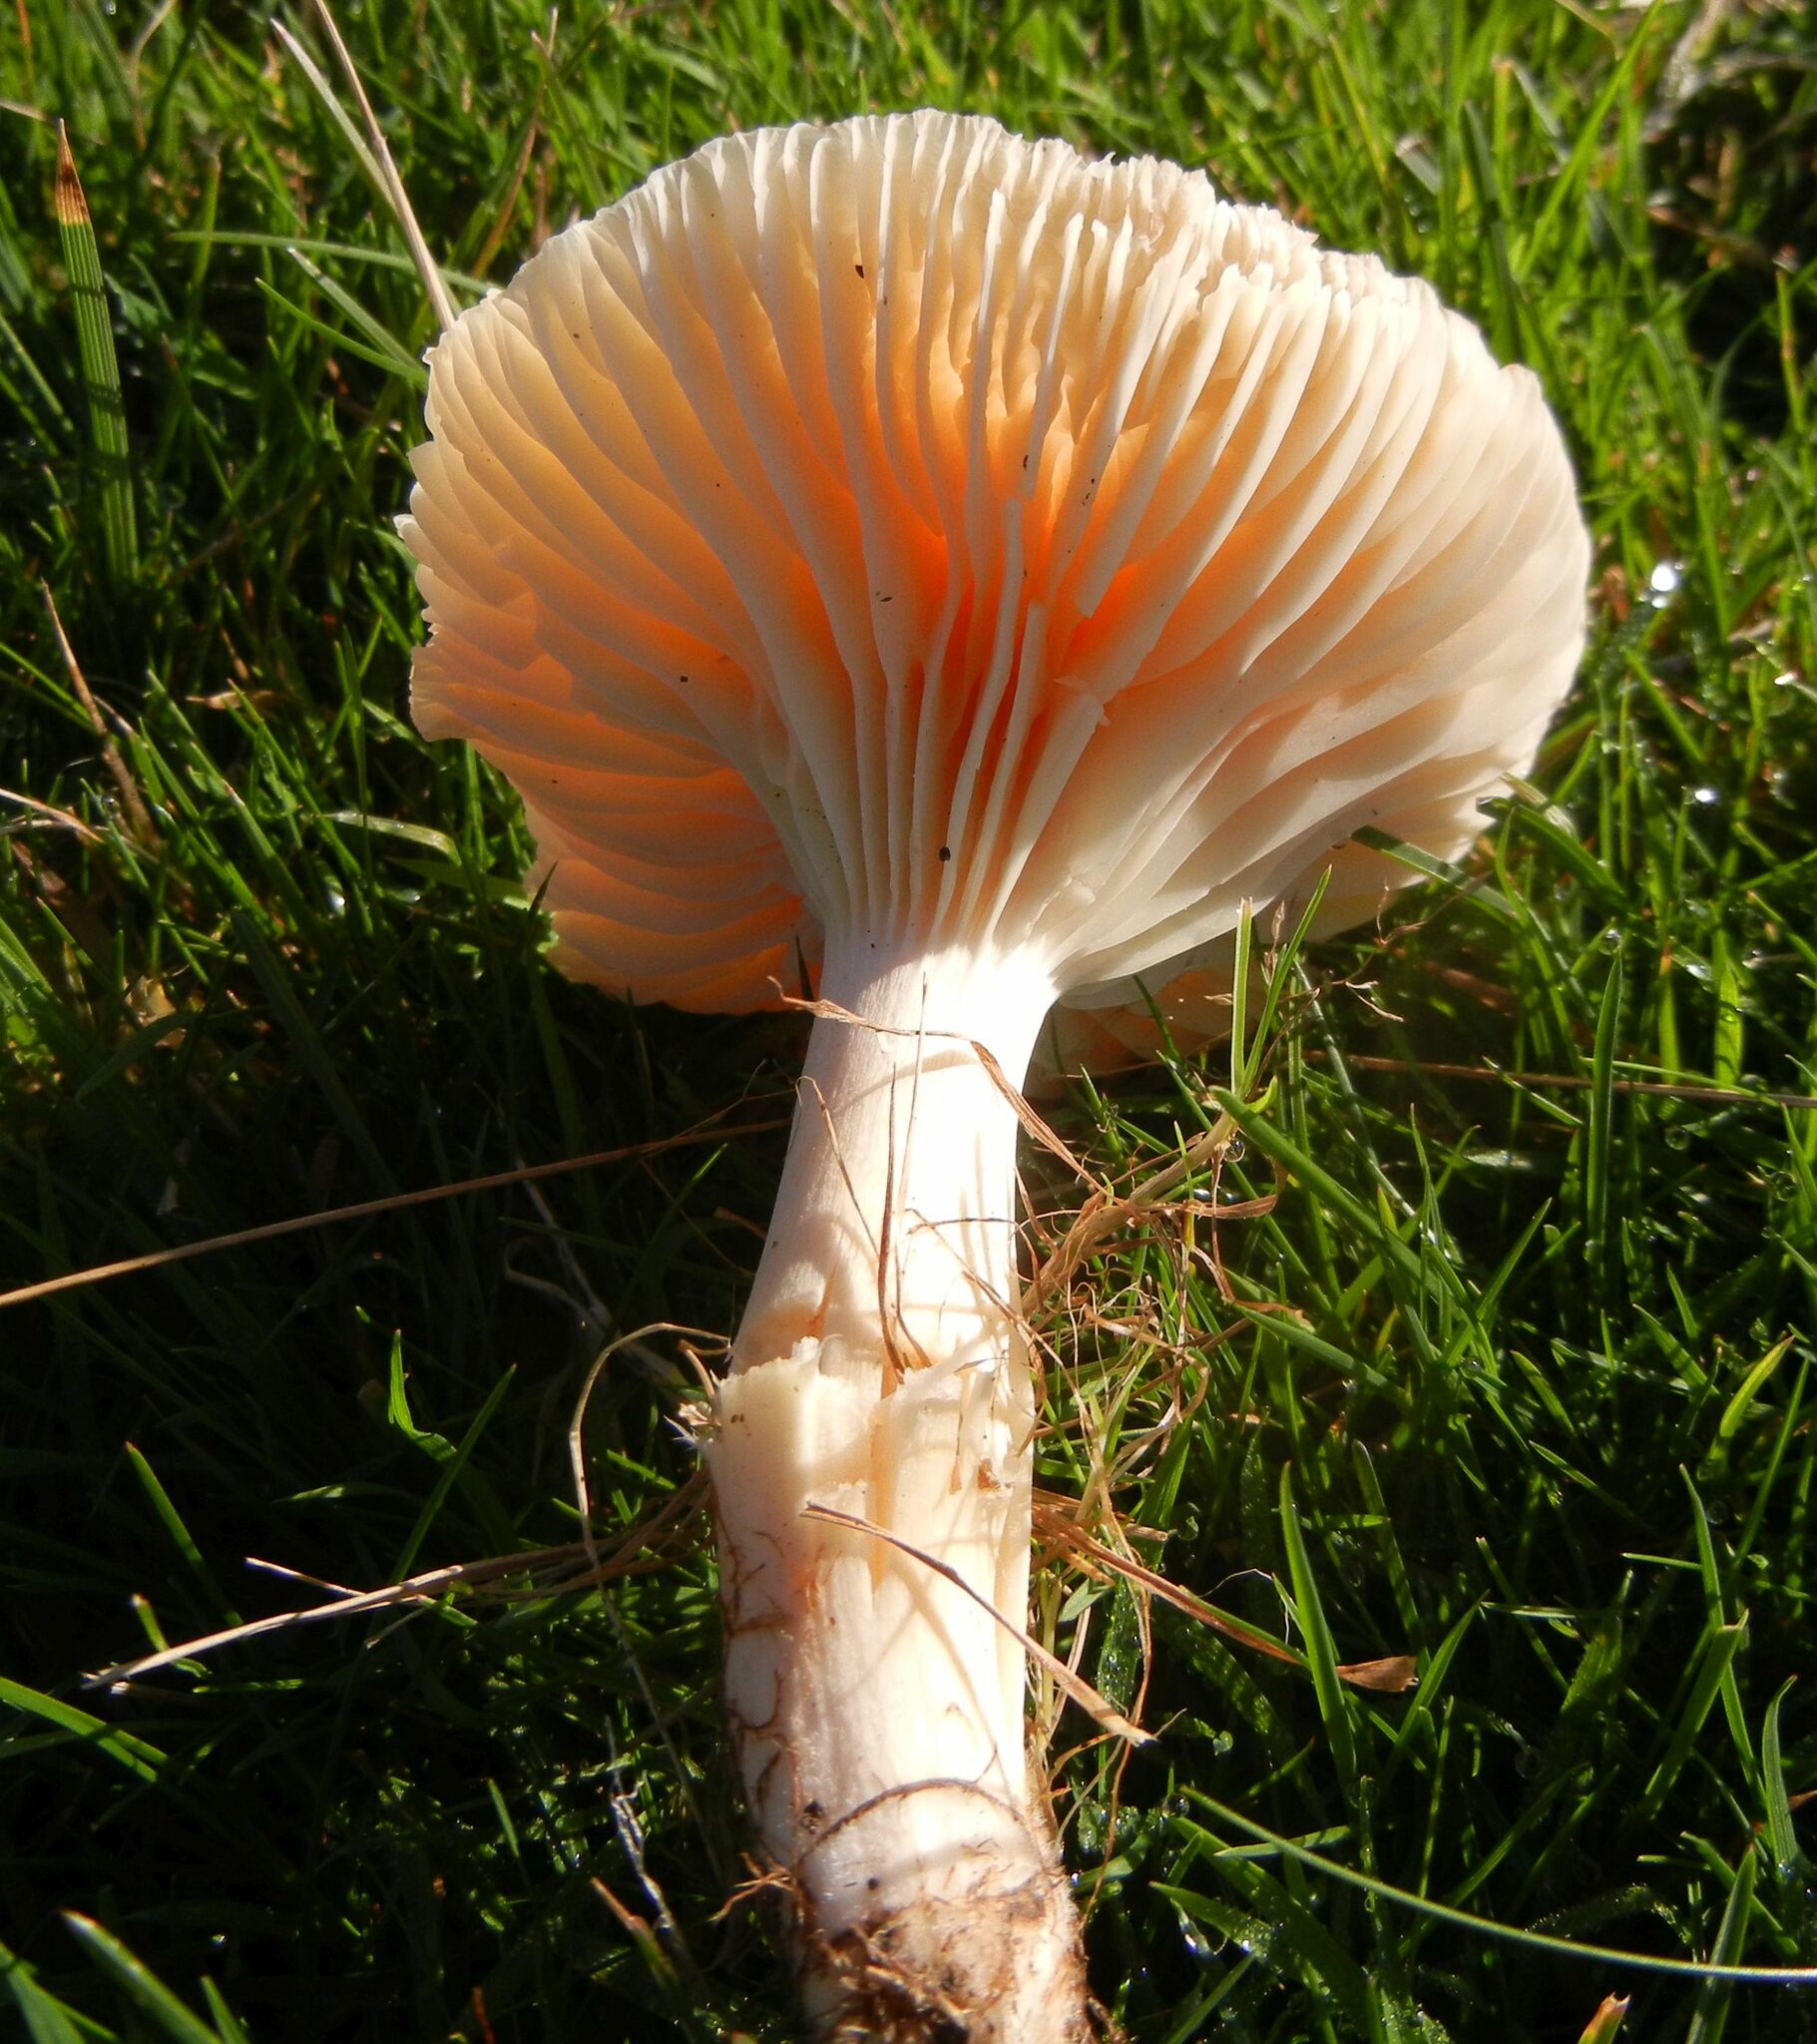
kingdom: Fungi
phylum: Basidiomycota
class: Agaricomycetes
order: Agaricales
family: Hygrophoraceae
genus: Cuphophyllus
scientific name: Cuphophyllus pratensis
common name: Meadow waxcap
